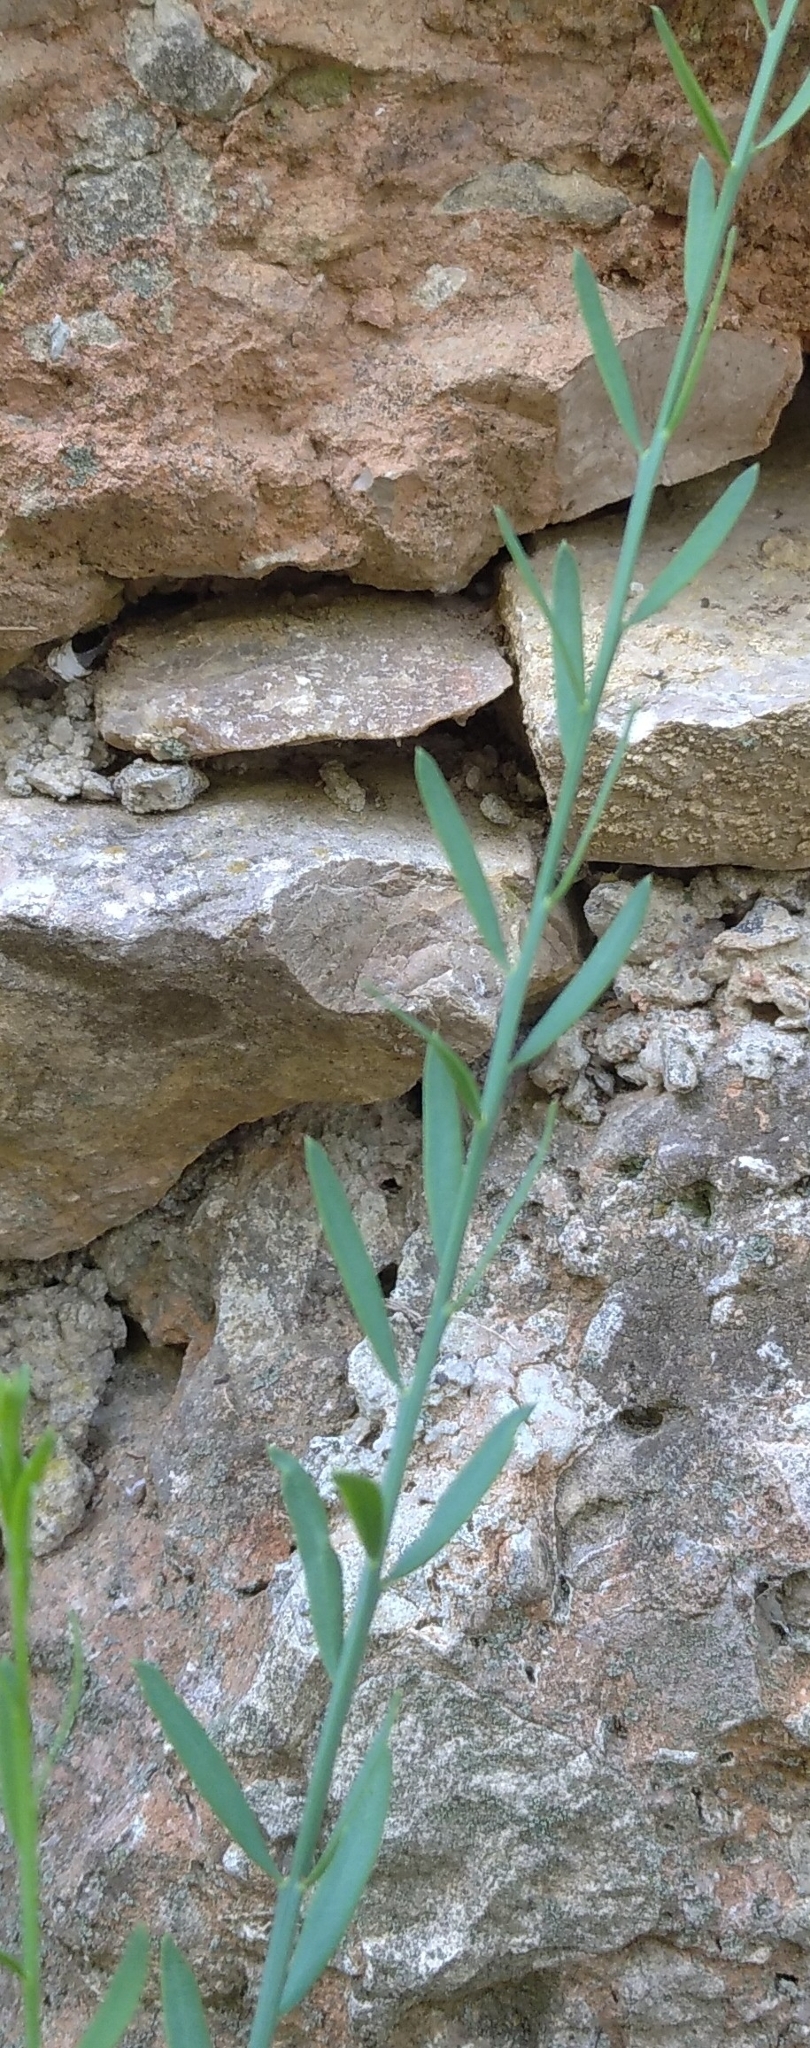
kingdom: Plantae
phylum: Tracheophyta
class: Magnoliopsida
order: Santalales
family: Santalaceae
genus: Osyris
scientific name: Osyris alba
